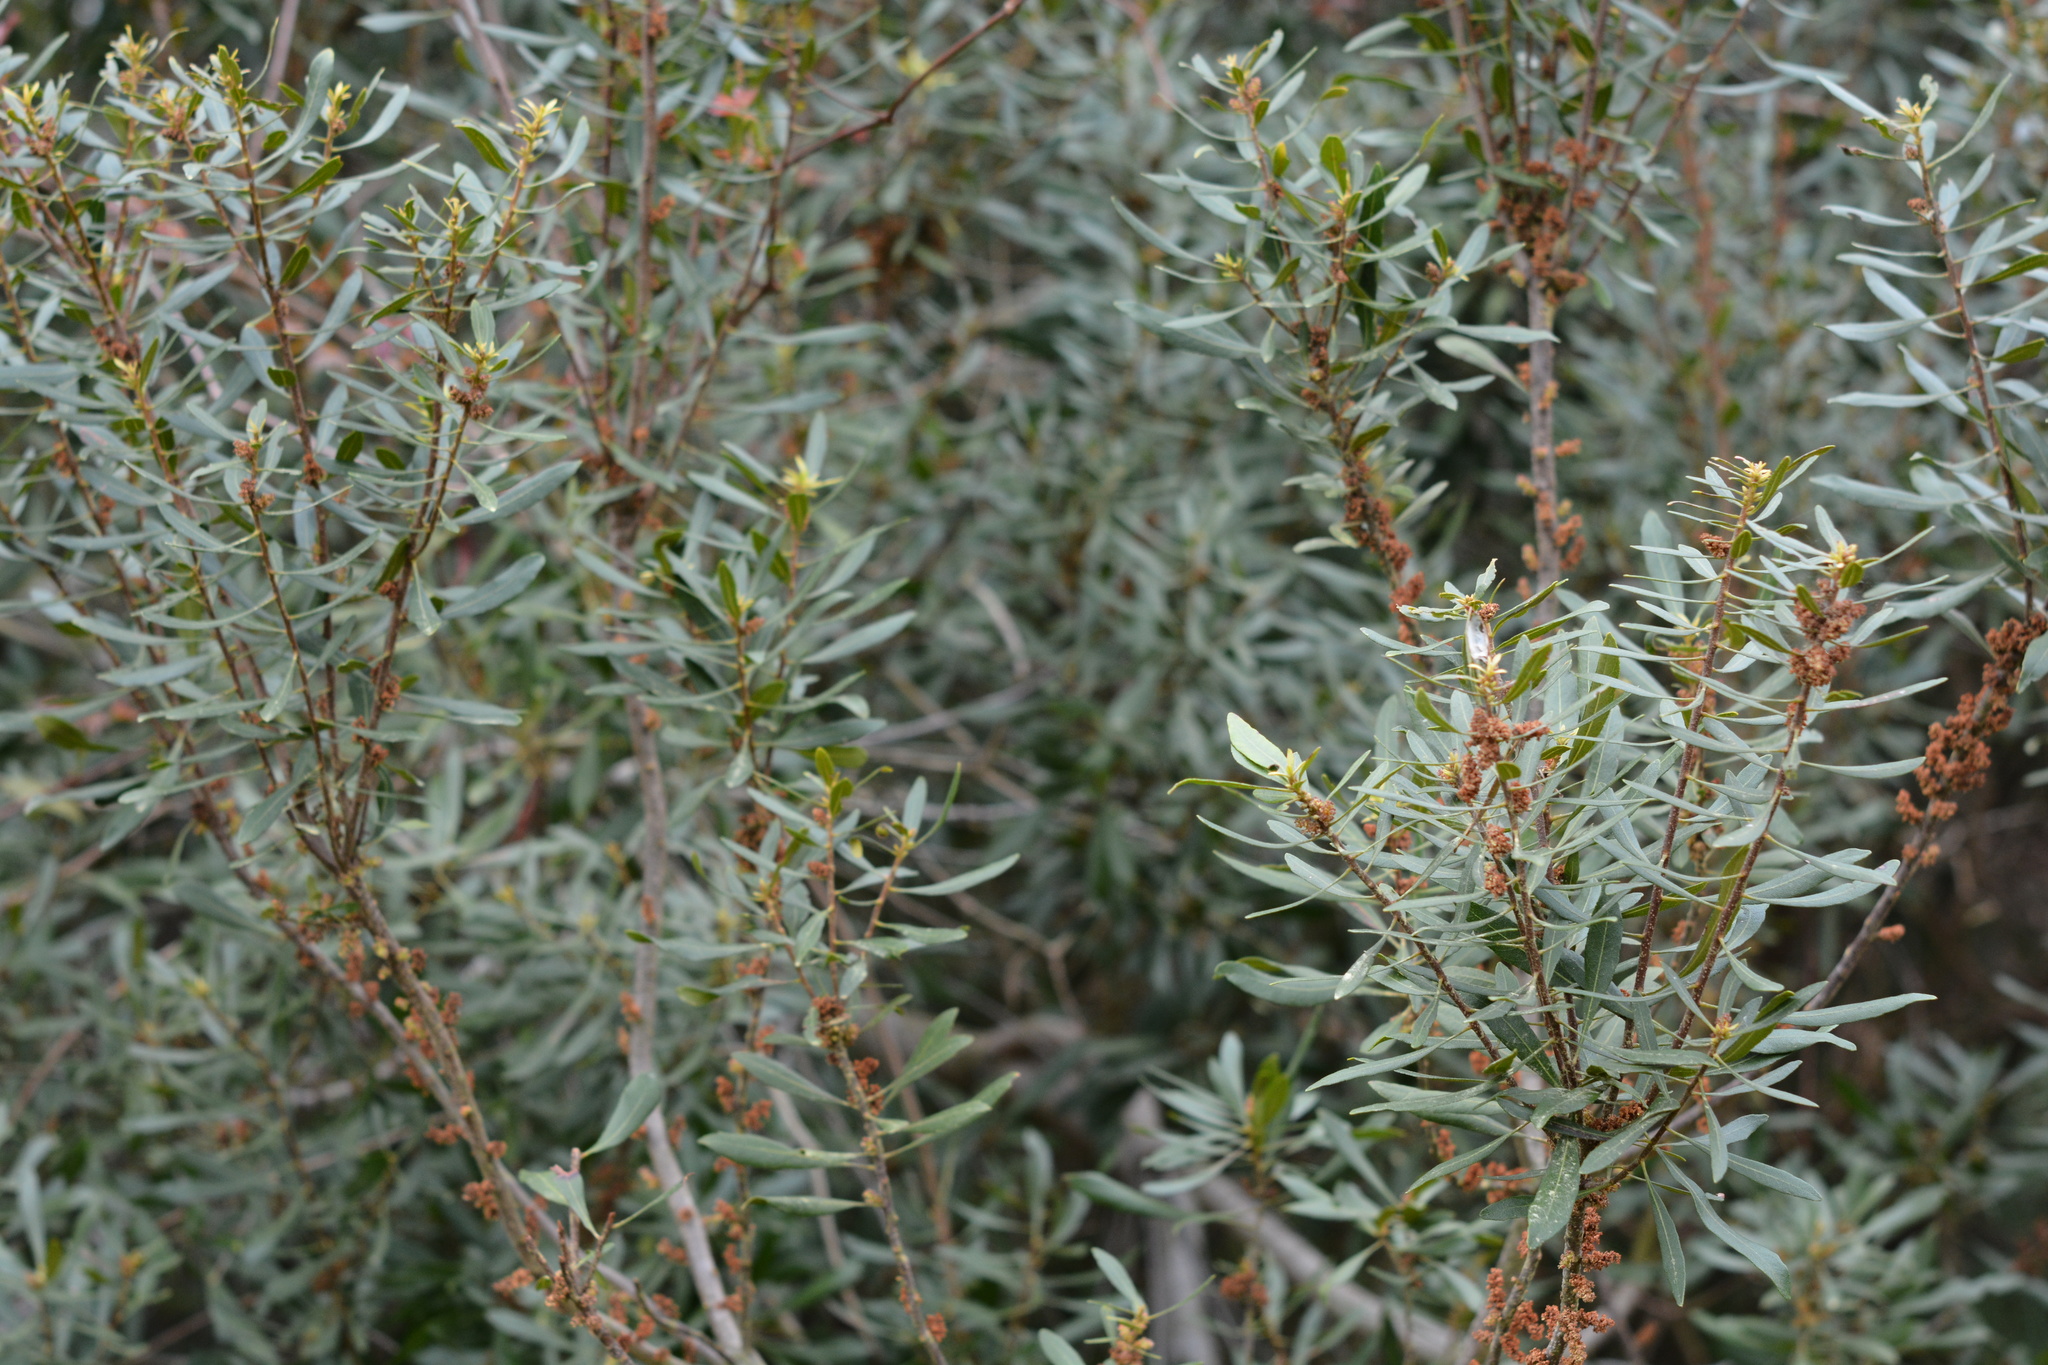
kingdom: Plantae
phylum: Tracheophyta
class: Magnoliopsida
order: Fagales
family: Myricaceae
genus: Morella
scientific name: Morella cerifera
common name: Wax myrtle
